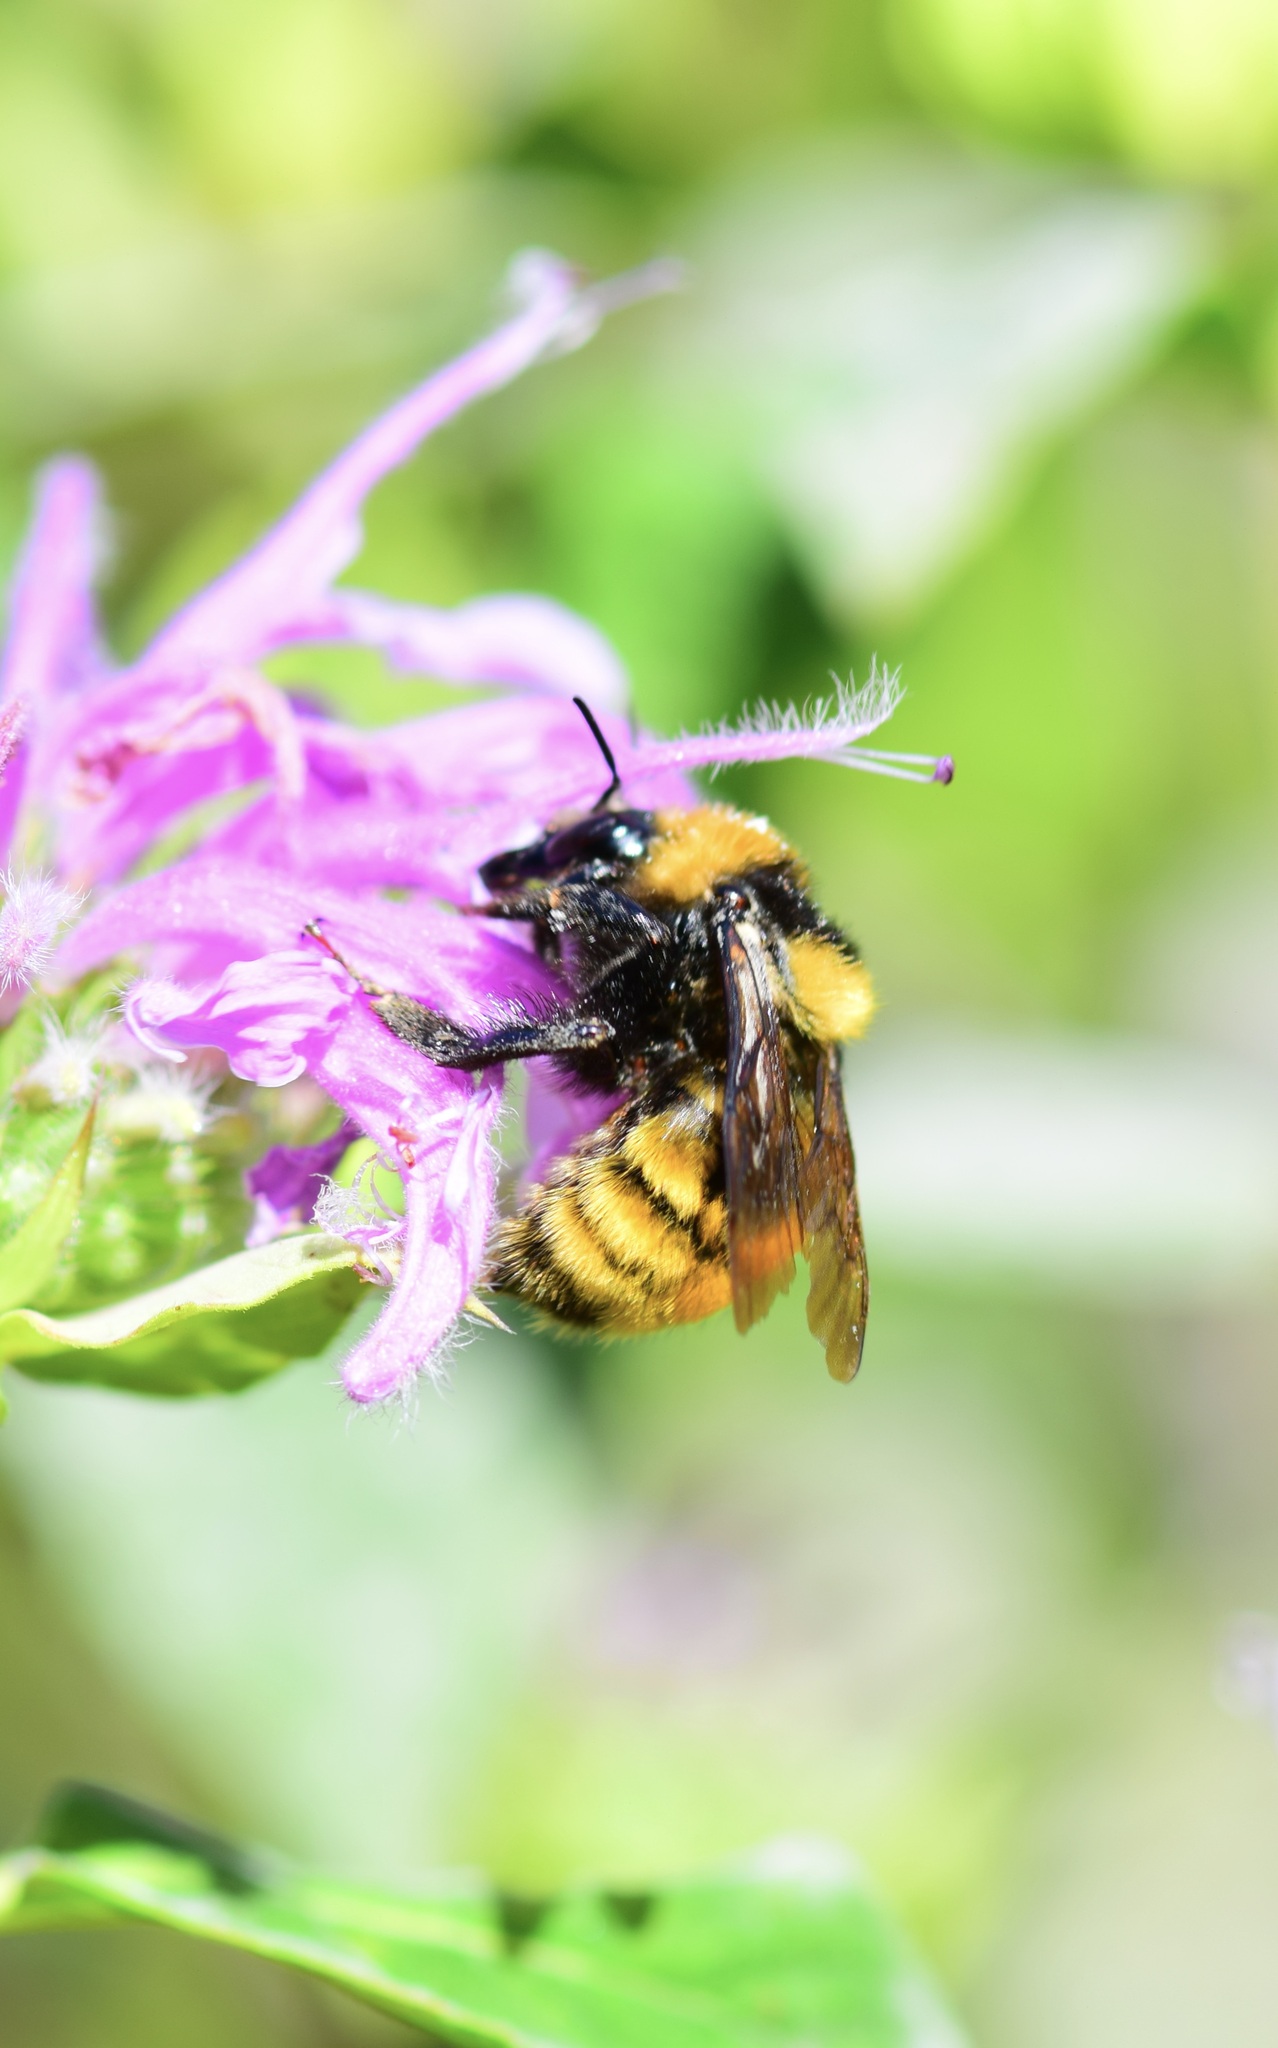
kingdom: Animalia
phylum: Arthropoda
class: Insecta
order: Hymenoptera
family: Apidae
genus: Bombus
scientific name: Bombus borealis
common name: Northern amber bumble bee
